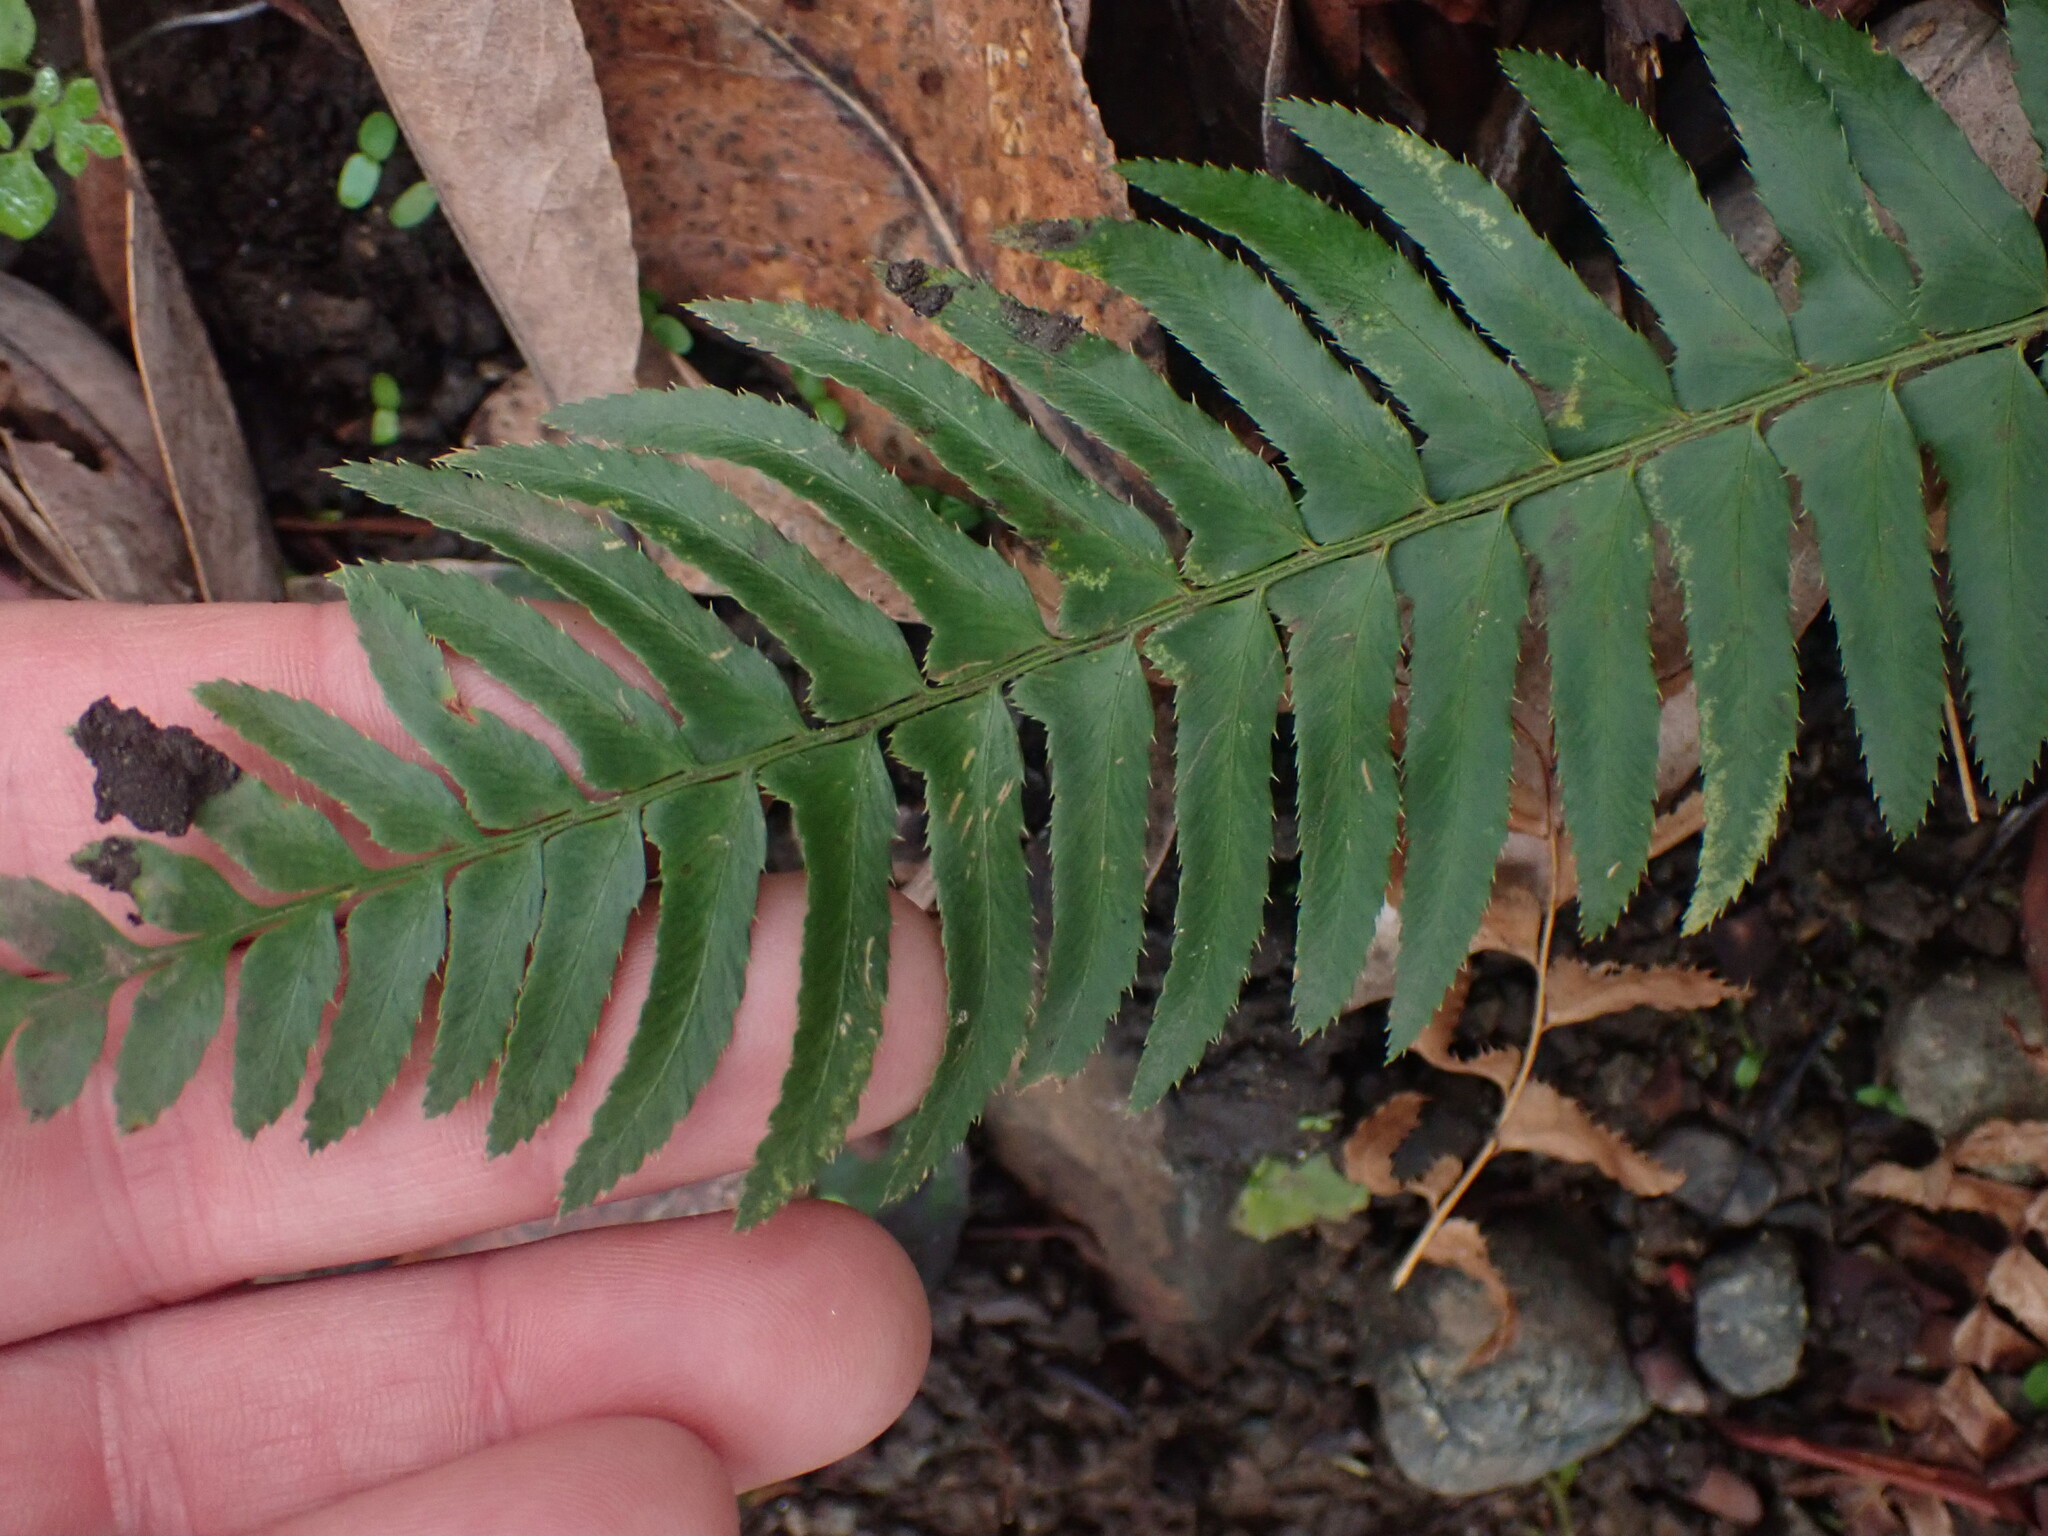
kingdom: Plantae
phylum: Tracheophyta
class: Polypodiopsida
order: Polypodiales
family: Dryopteridaceae
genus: Polystichum
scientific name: Polystichum munitum
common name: Western sword-fern
